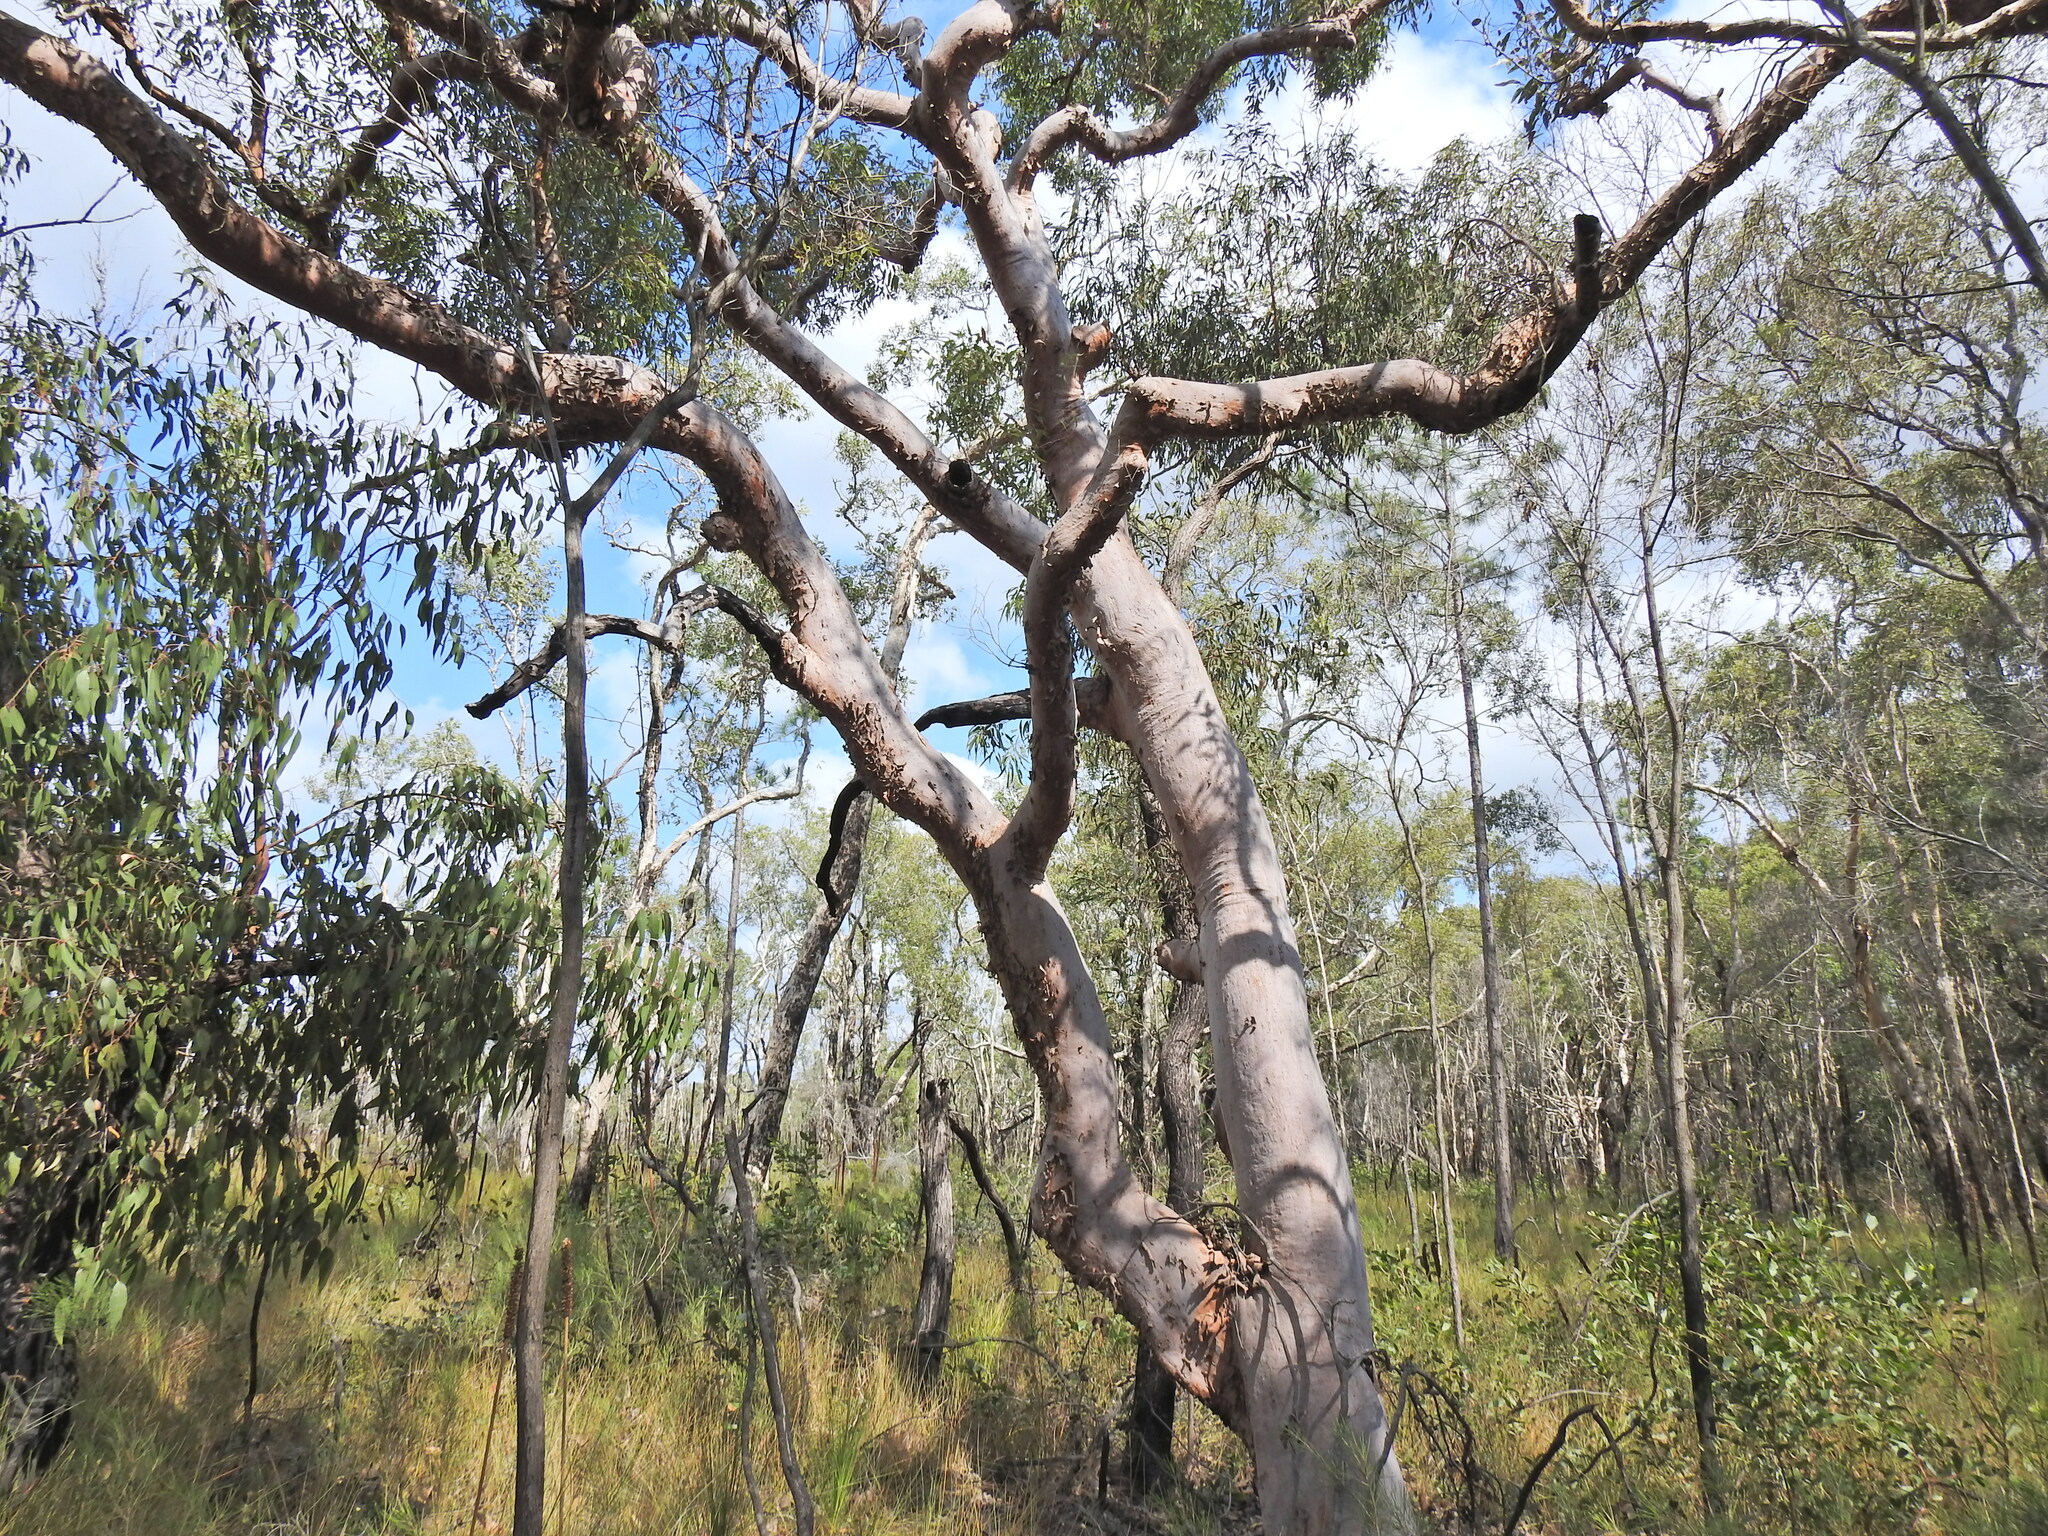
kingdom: Plantae
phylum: Tracheophyta
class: Magnoliopsida
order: Myrtales
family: Myrtaceae
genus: Angophora
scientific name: Angophora leiocarpa
